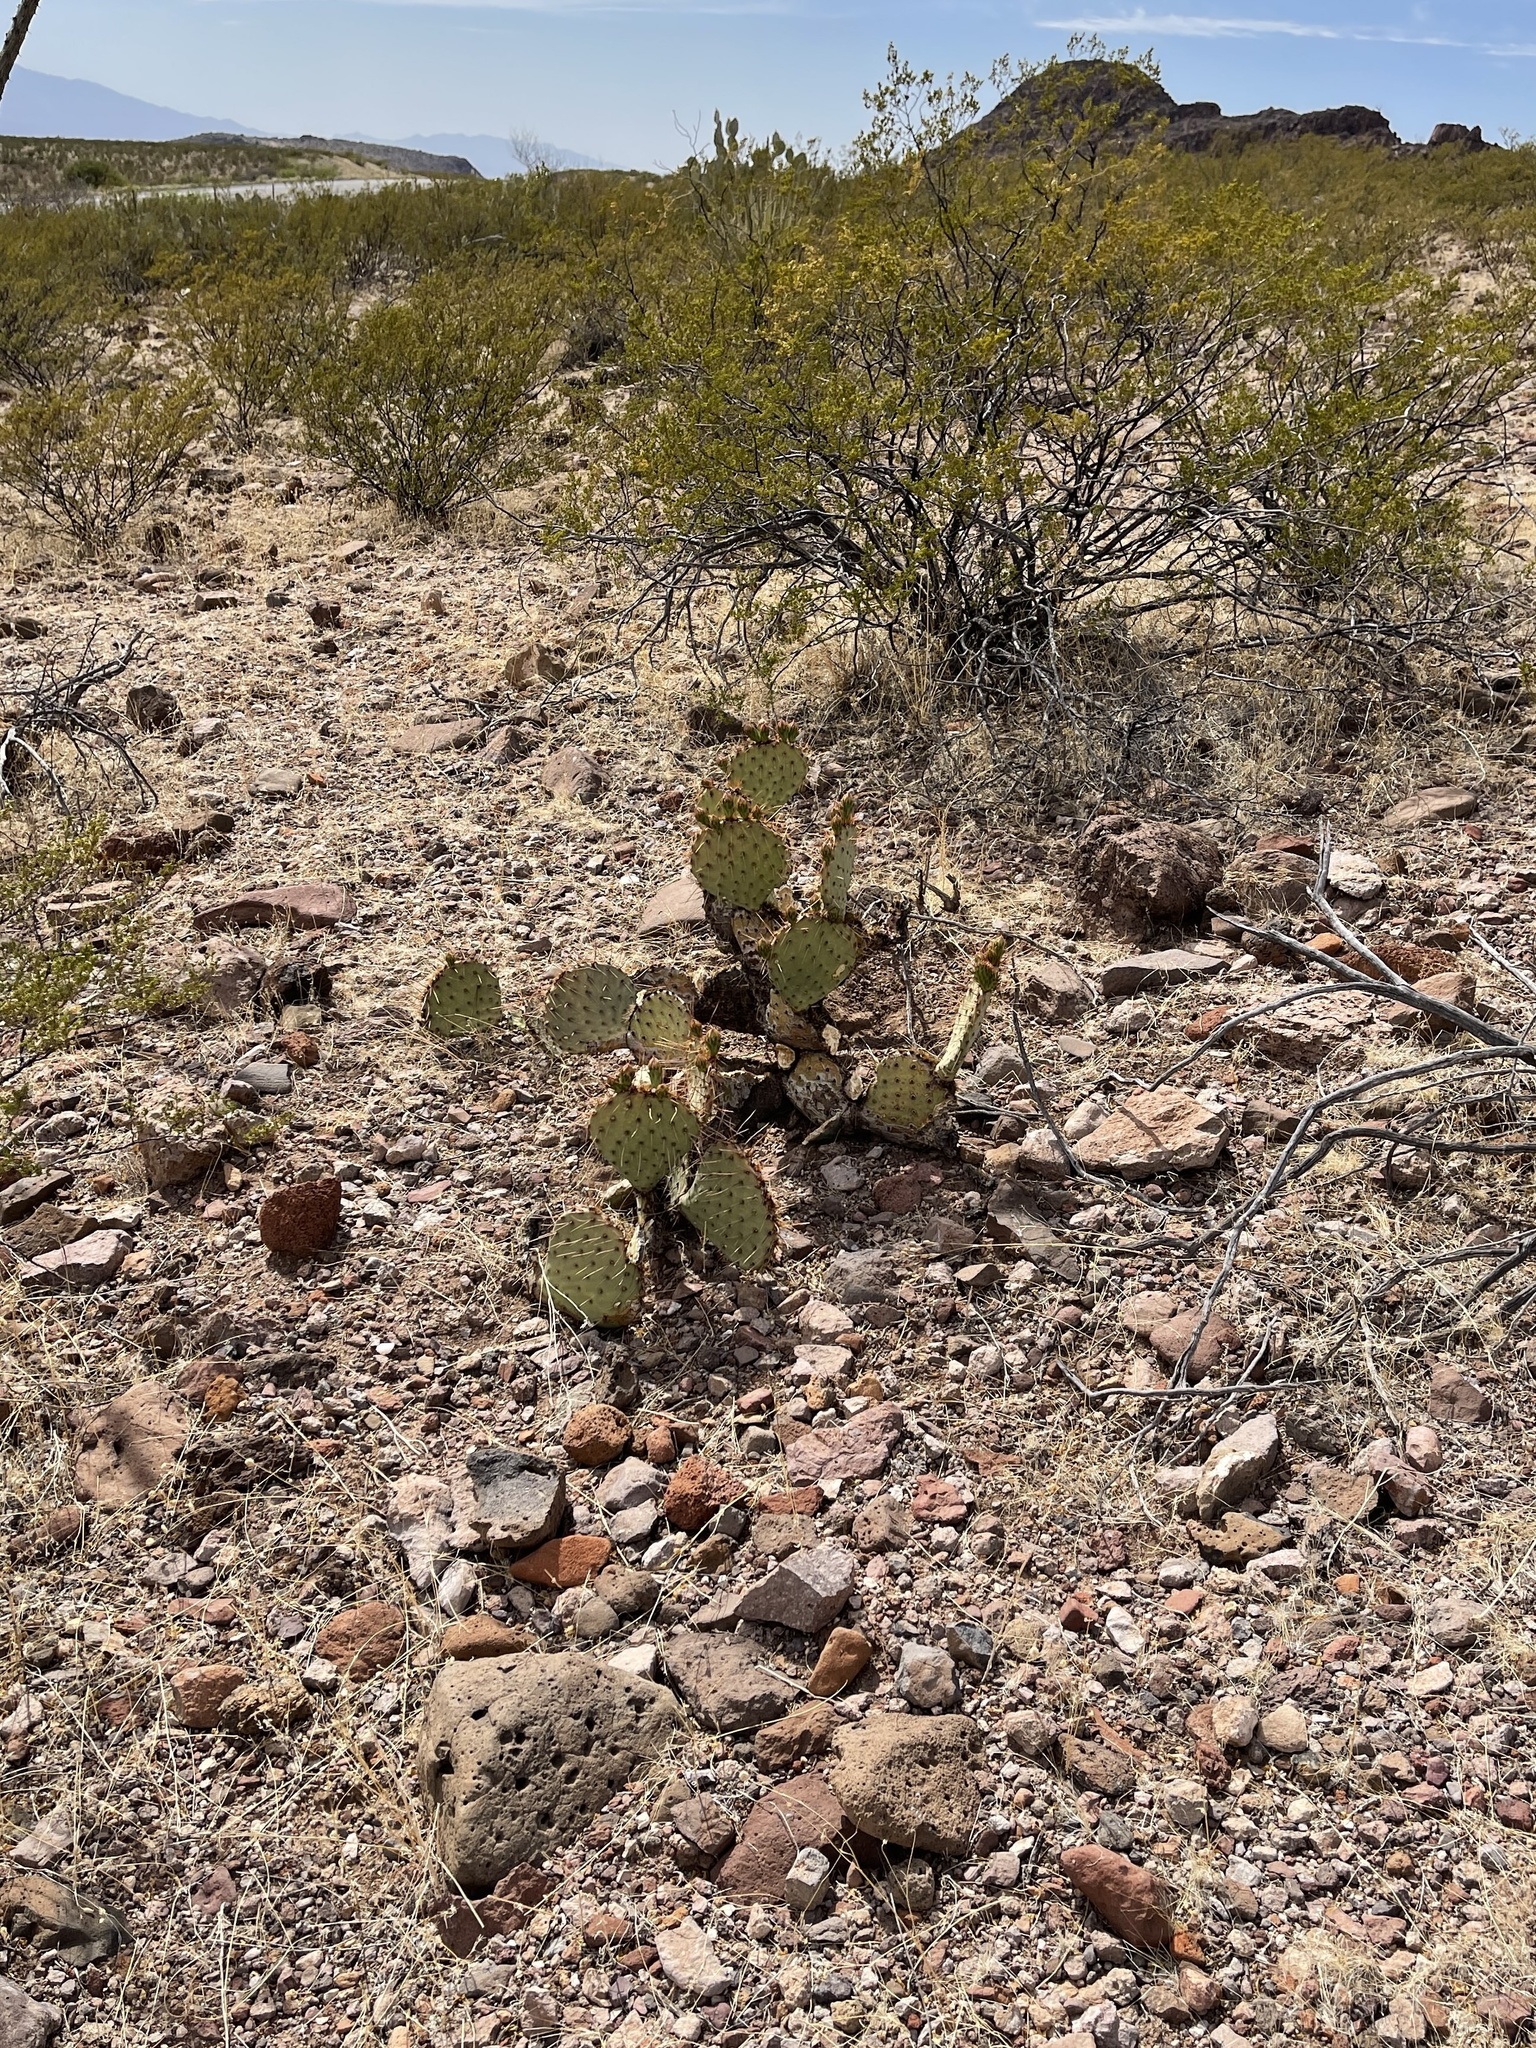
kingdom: Plantae
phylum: Tracheophyta
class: Magnoliopsida
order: Caryophyllales
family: Cactaceae
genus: Opuntia
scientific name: Opuntia phaeacantha
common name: New mexico prickly-pear
